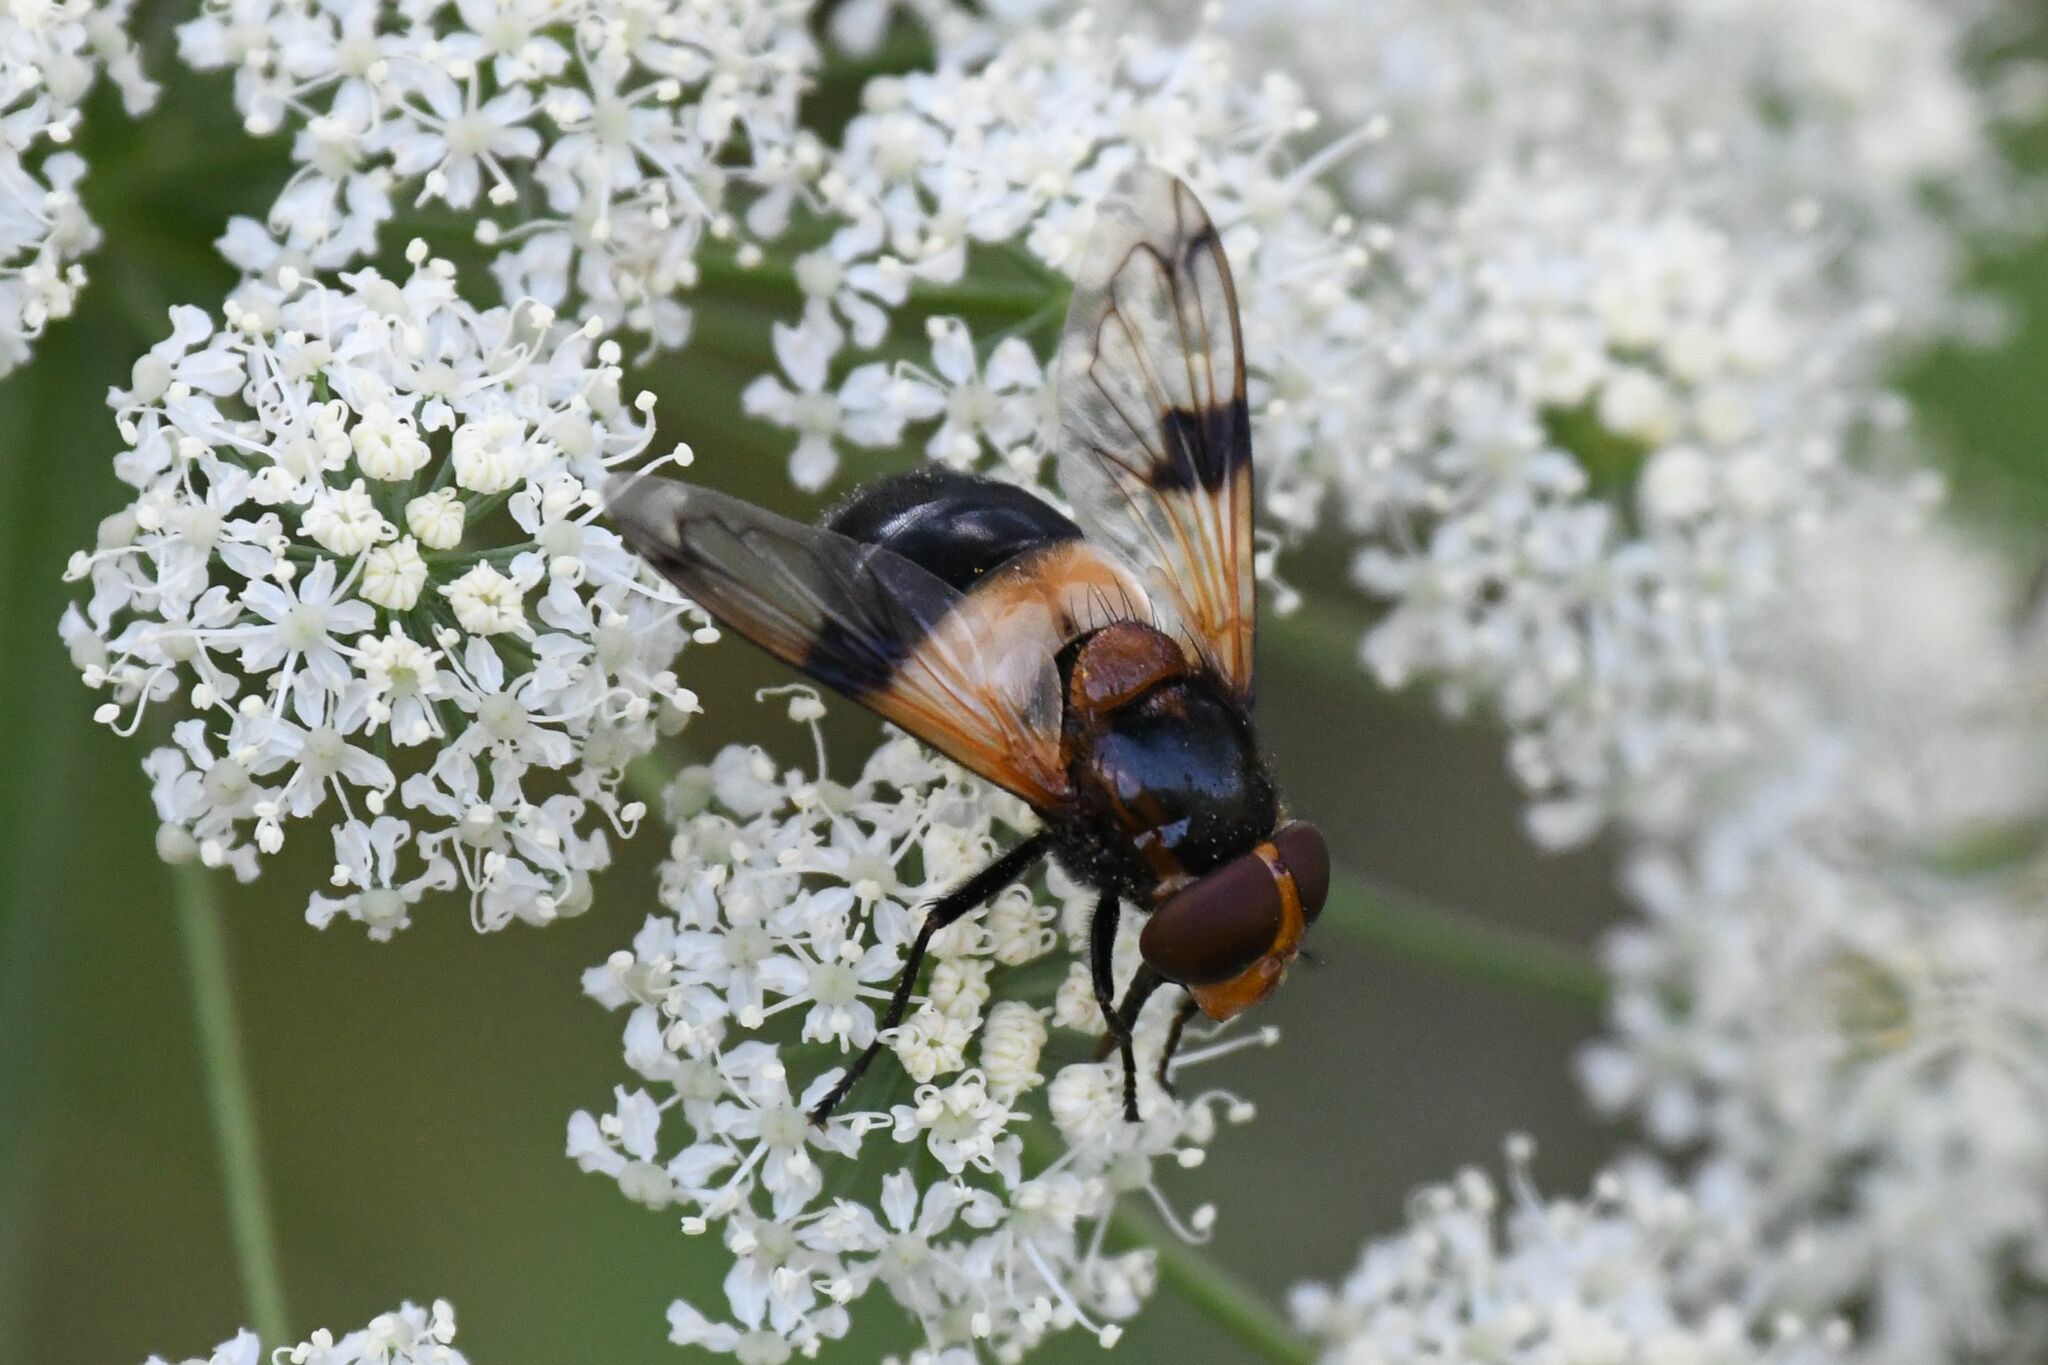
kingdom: Animalia
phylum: Arthropoda
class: Insecta
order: Diptera
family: Syrphidae
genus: Volucella
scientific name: Volucella pellucens
